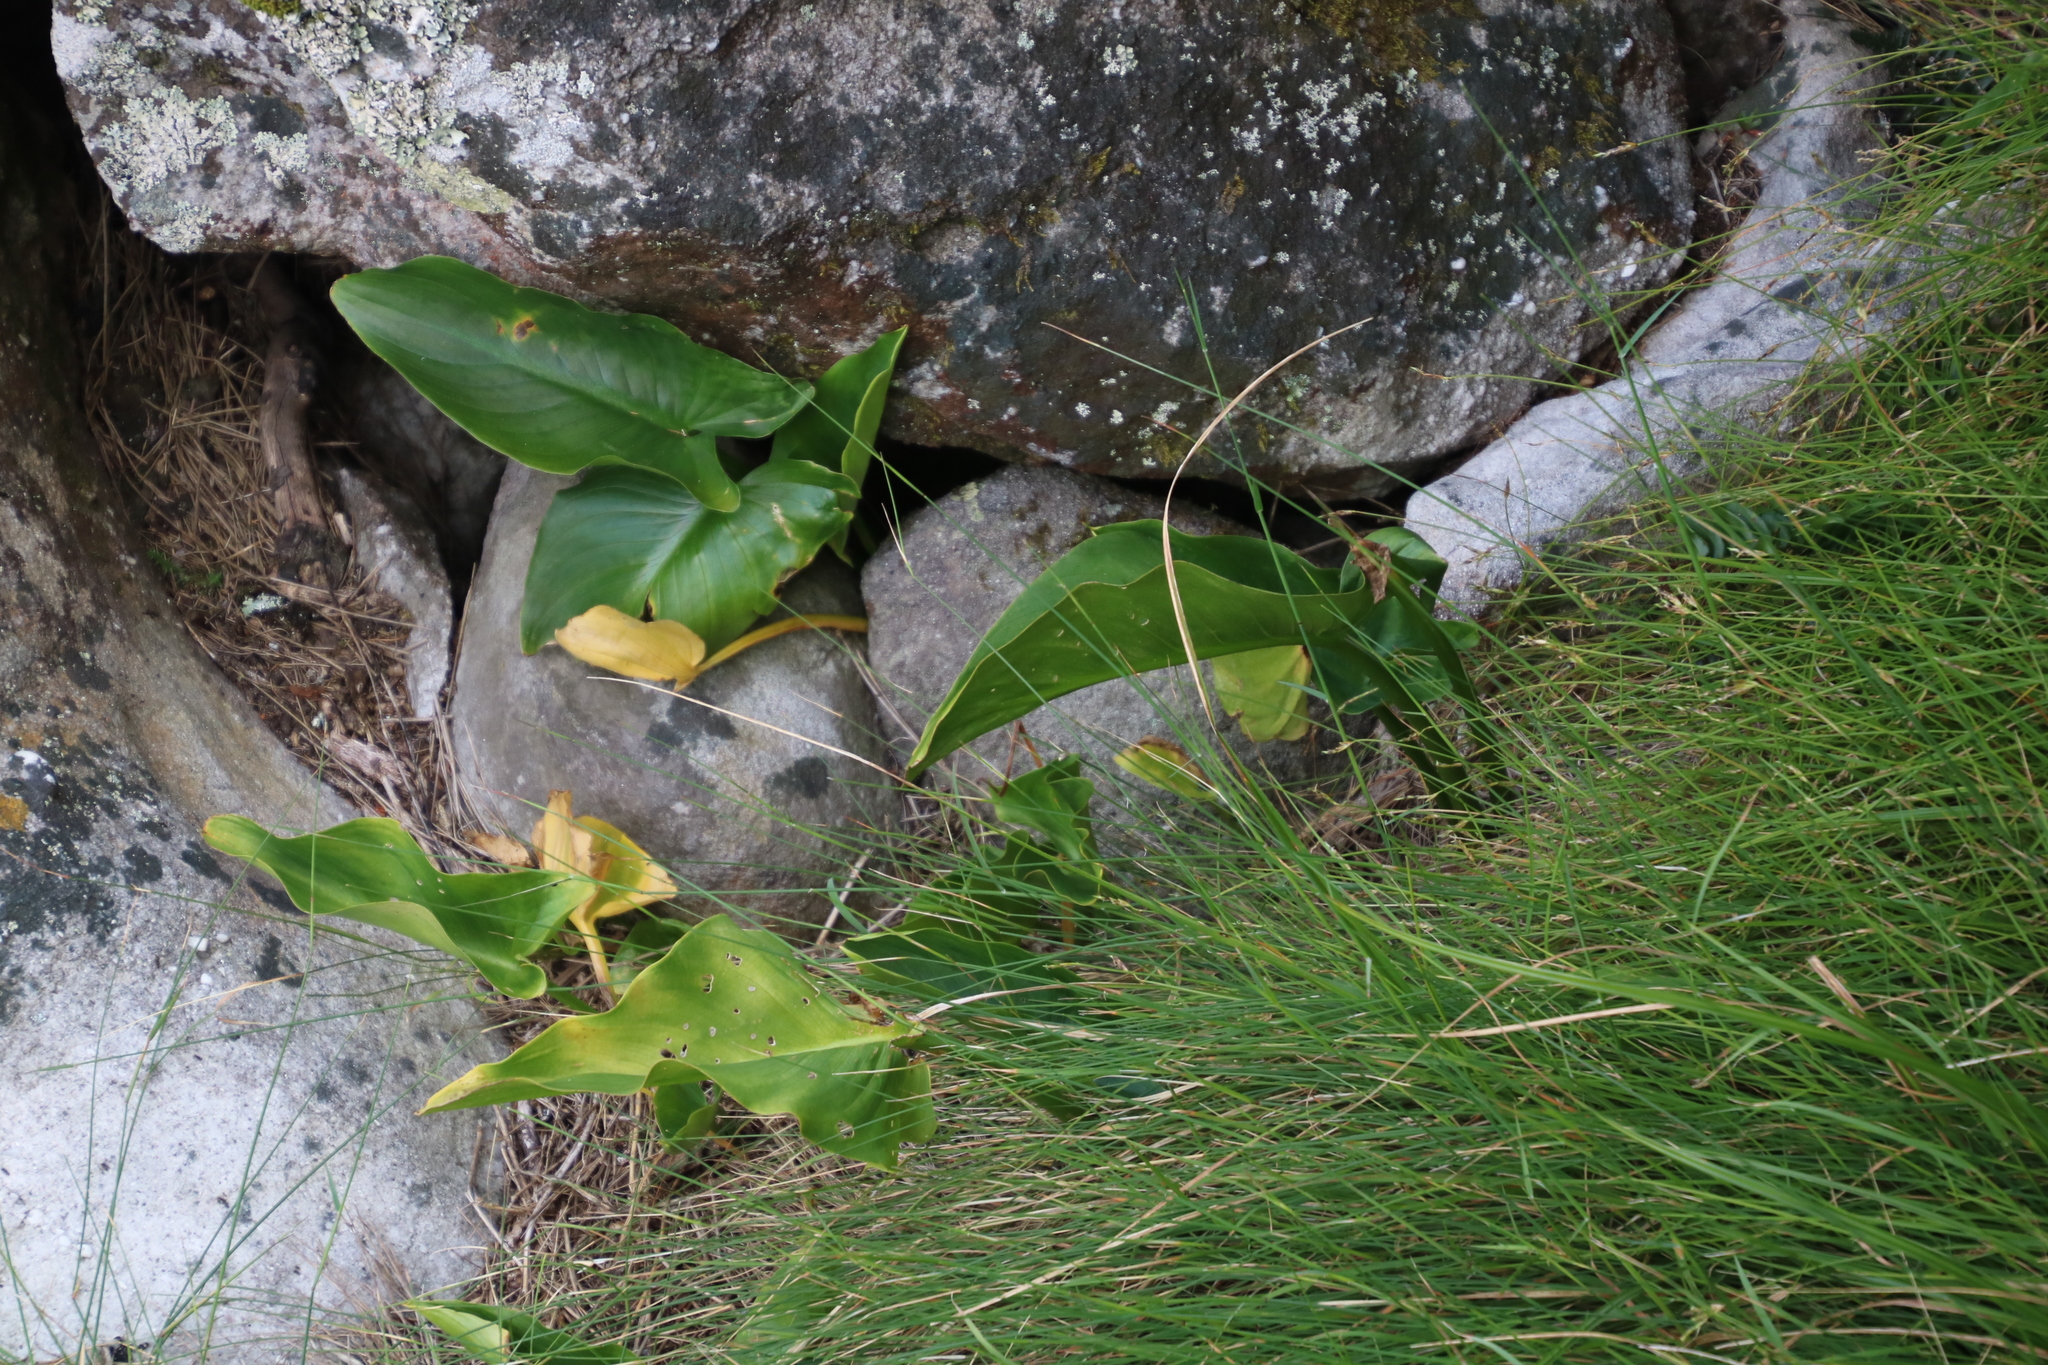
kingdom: Plantae
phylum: Tracheophyta
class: Liliopsida
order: Alismatales
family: Araceae
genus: Zantedeschia
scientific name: Zantedeschia aethiopica
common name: Altar-lily
